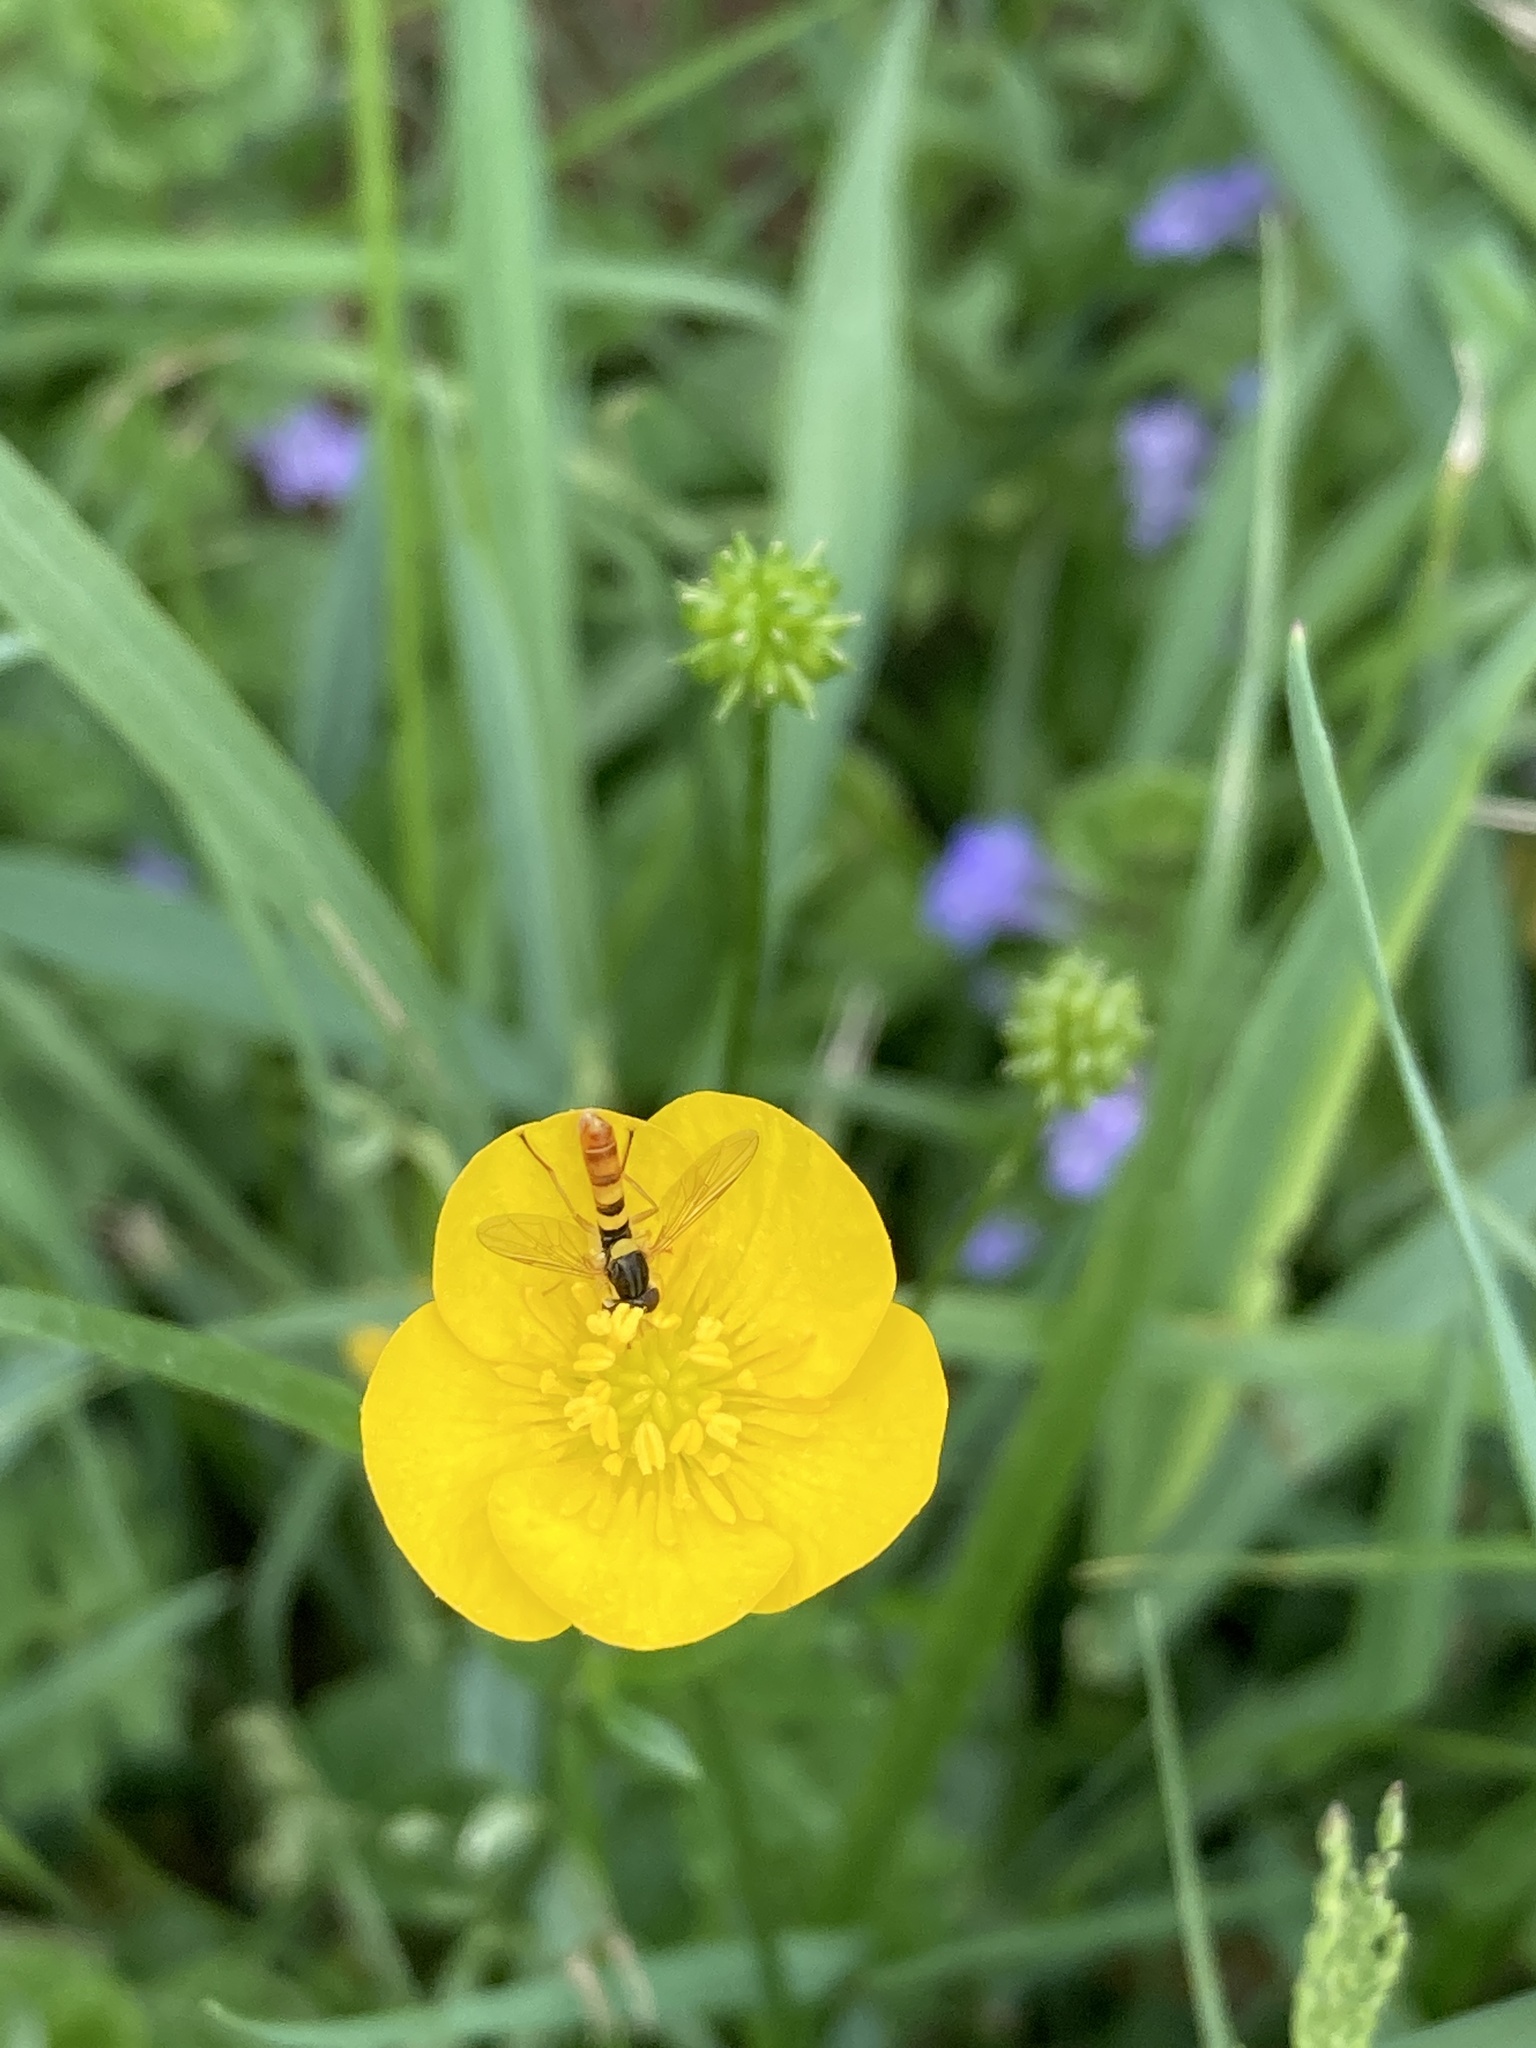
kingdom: Animalia
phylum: Arthropoda
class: Insecta
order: Diptera
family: Syrphidae
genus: Sphaerophoria
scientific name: Sphaerophoria contigua
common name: Tufted globetail
